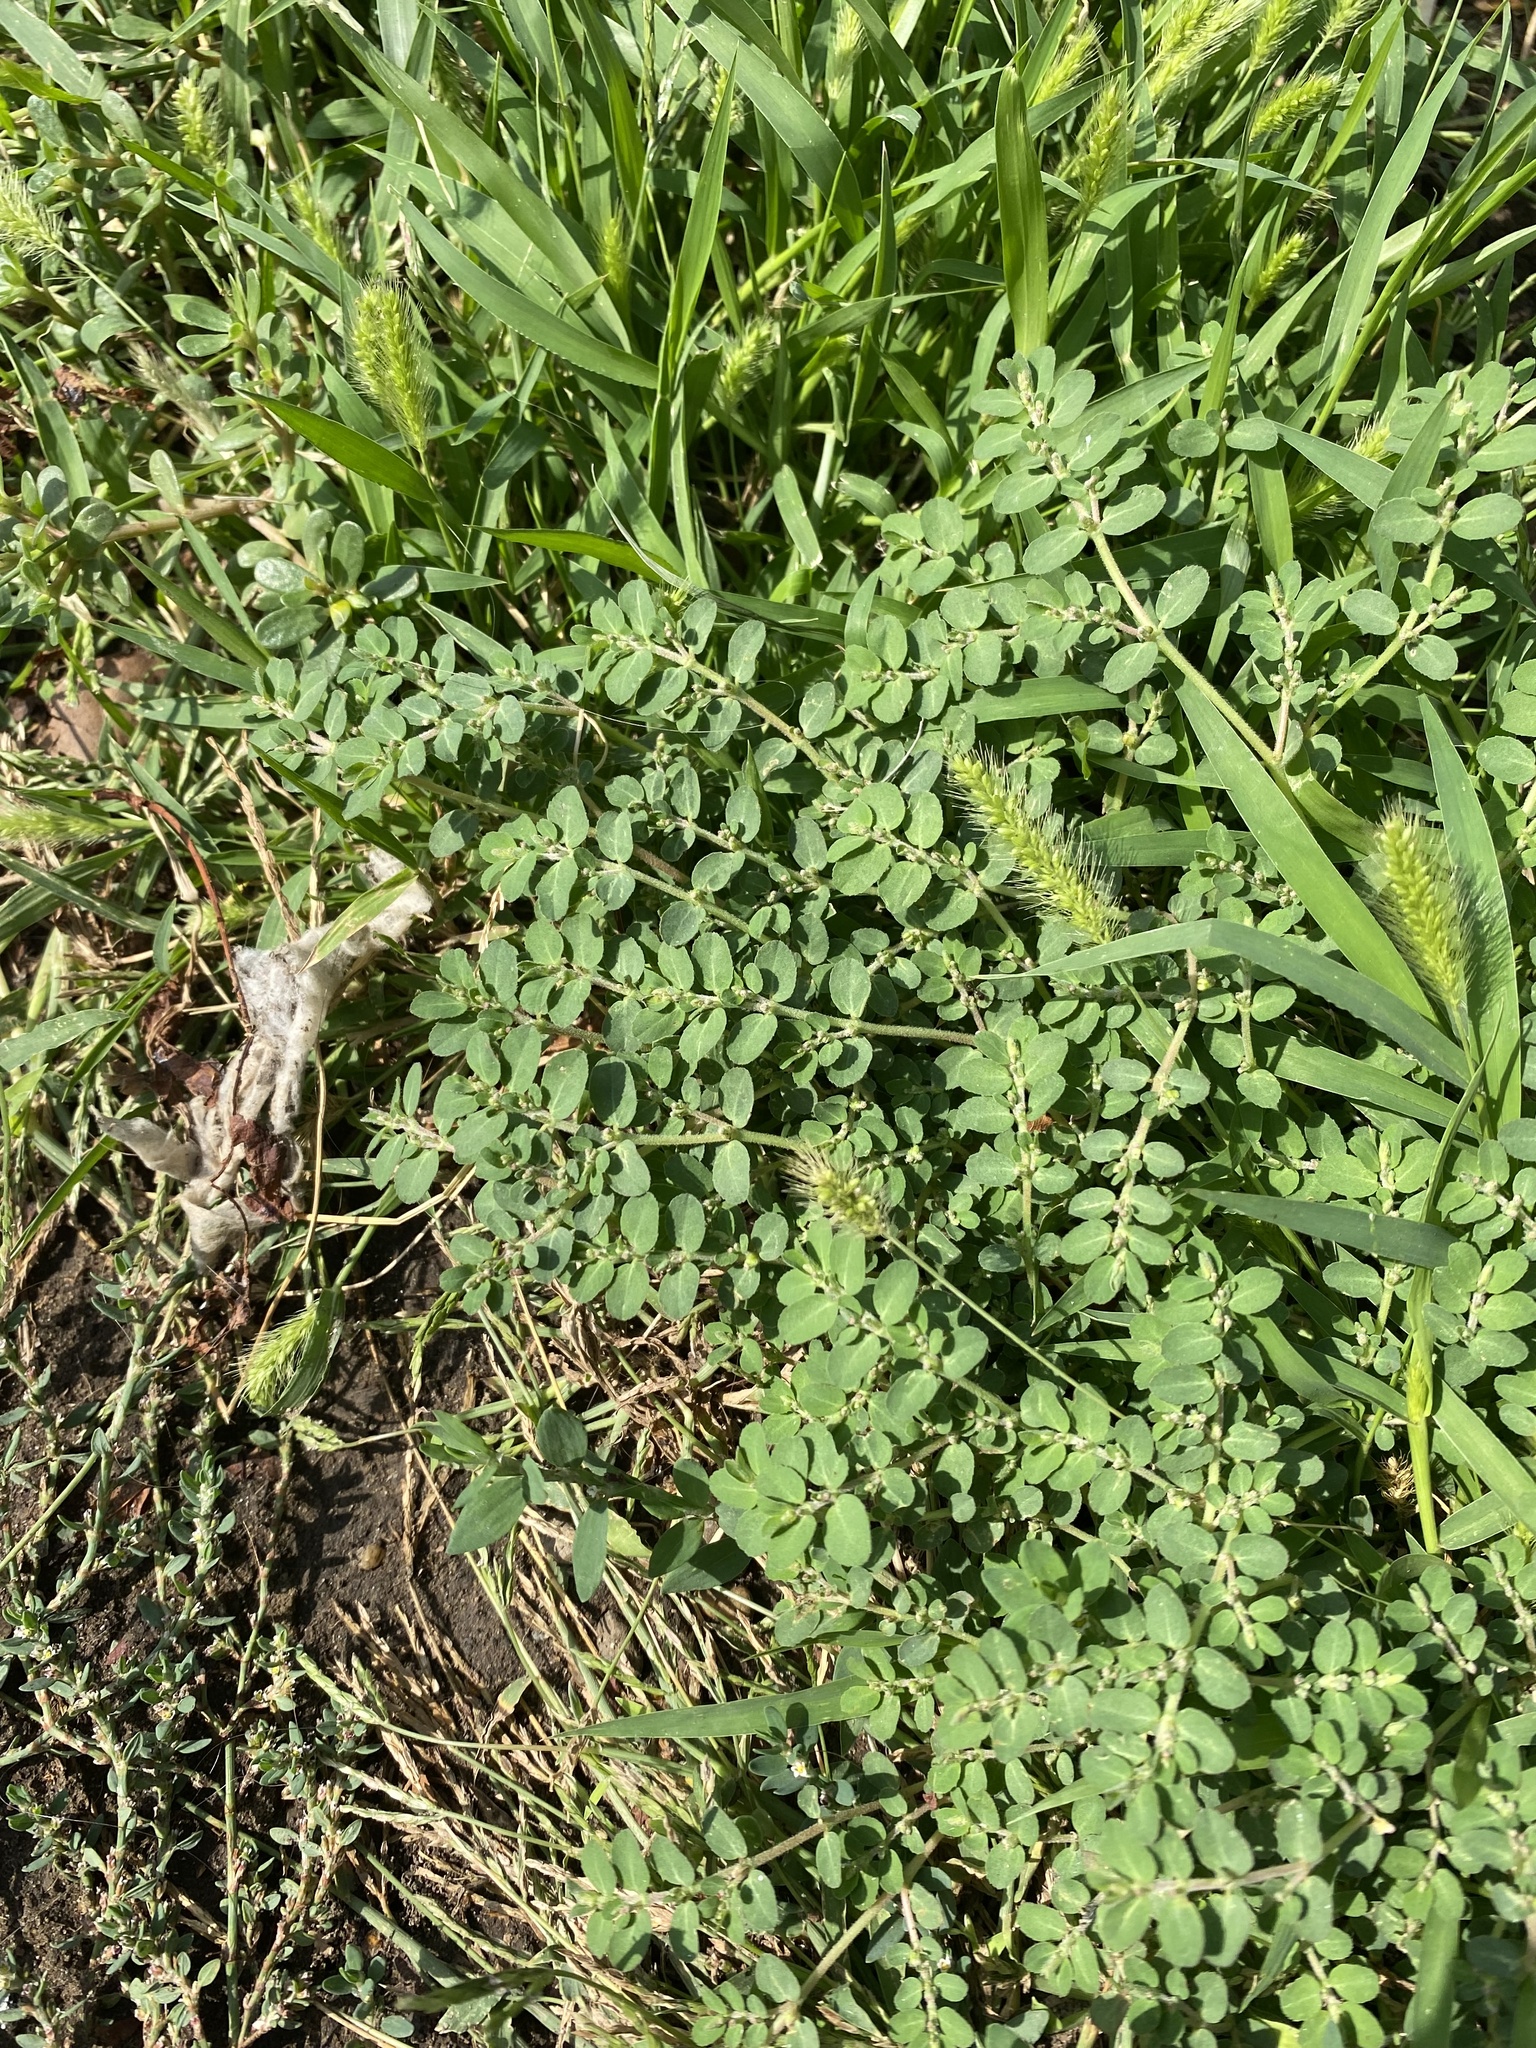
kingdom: Plantae
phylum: Tracheophyta
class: Magnoliopsida
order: Malpighiales
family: Euphorbiaceae
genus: Euphorbia
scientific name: Euphorbia prostrata
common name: Prostrate sandmat
